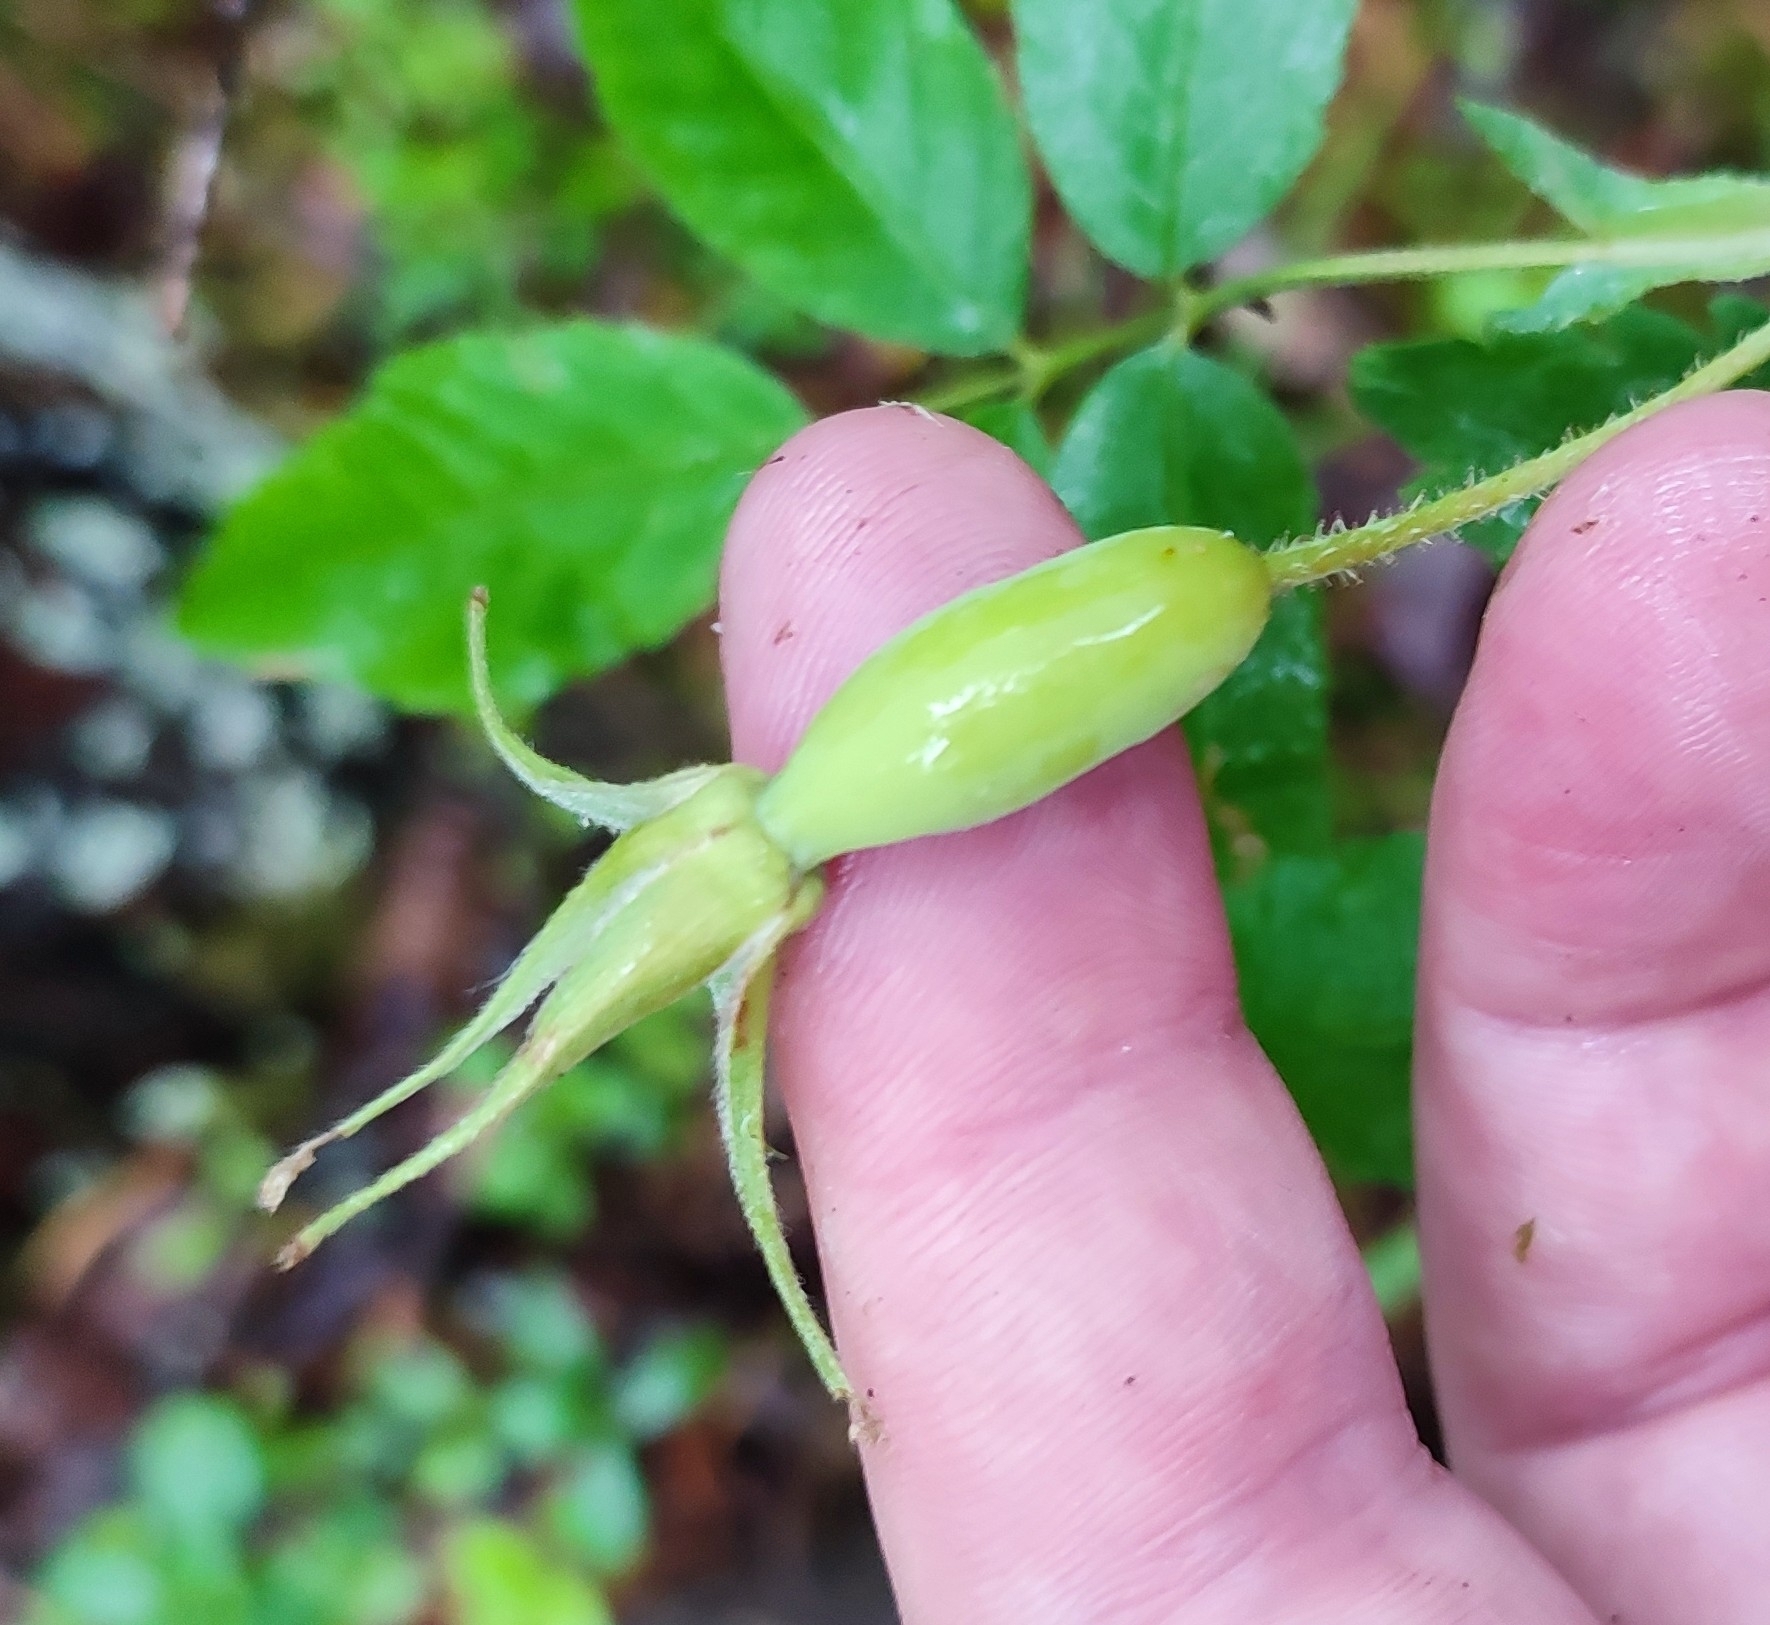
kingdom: Plantae
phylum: Tracheophyta
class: Magnoliopsida
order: Rosales
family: Rosaceae
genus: Rosa
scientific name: Rosa acicularis
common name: Prickly rose
